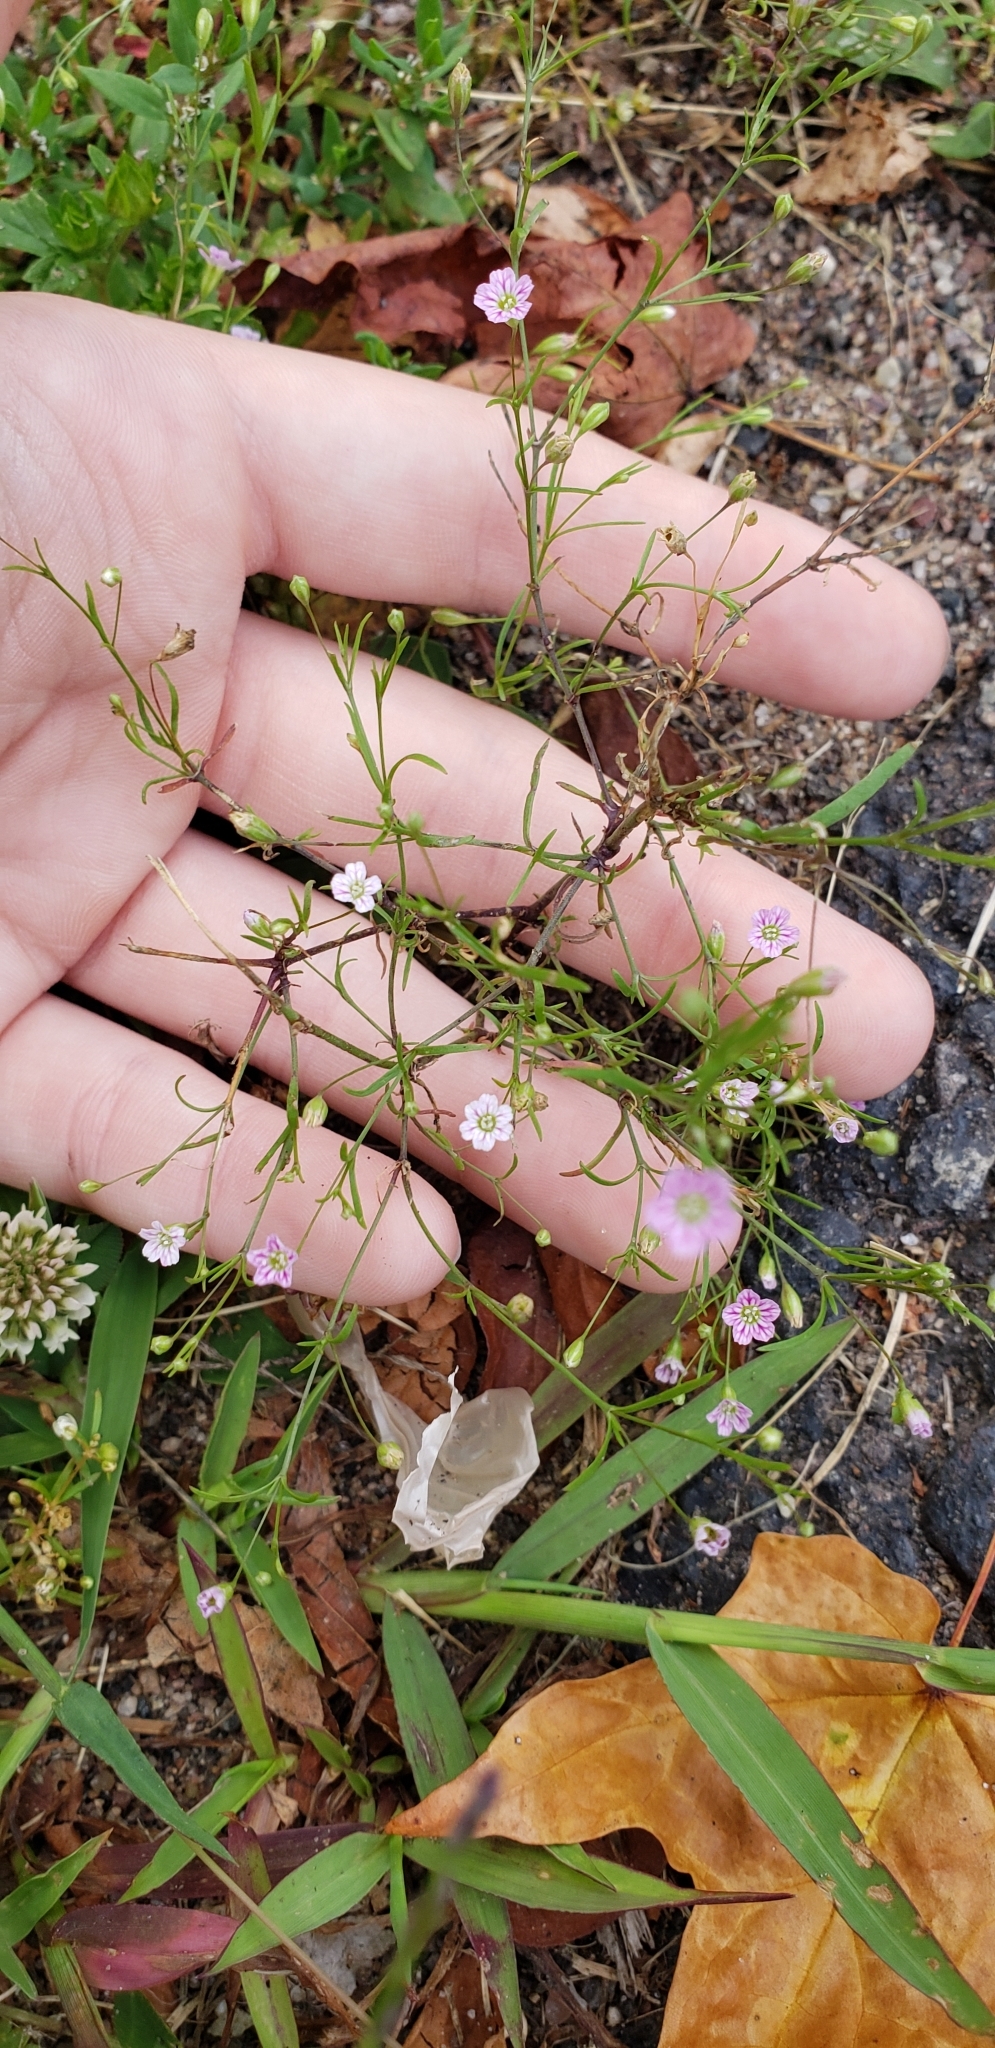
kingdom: Plantae
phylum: Tracheophyta
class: Magnoliopsida
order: Caryophyllales
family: Caryophyllaceae
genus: Psammophiliella
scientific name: Psammophiliella muralis
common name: Cushion baby's-breath
